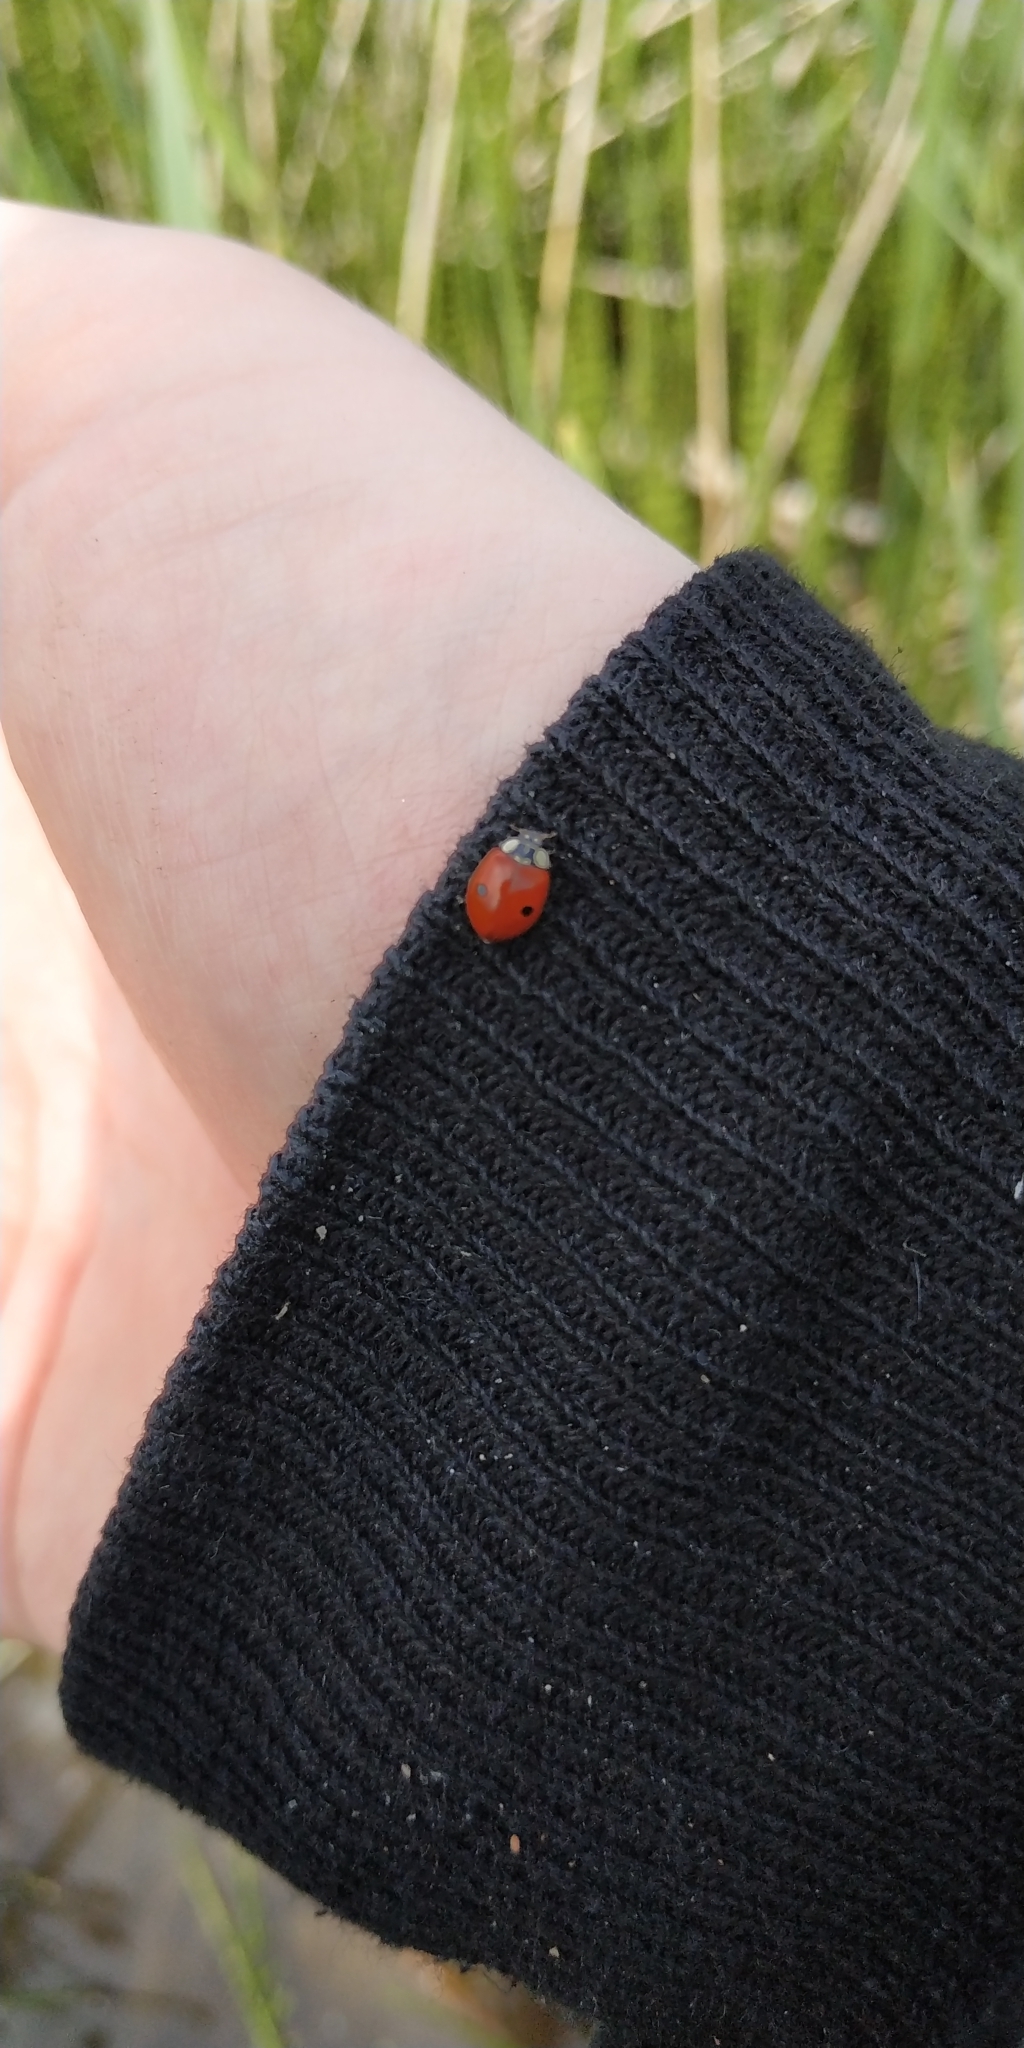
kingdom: Animalia
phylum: Arthropoda
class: Insecta
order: Coleoptera
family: Coccinellidae
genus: Adalia
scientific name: Adalia bipunctata
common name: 2-spot ladybird
